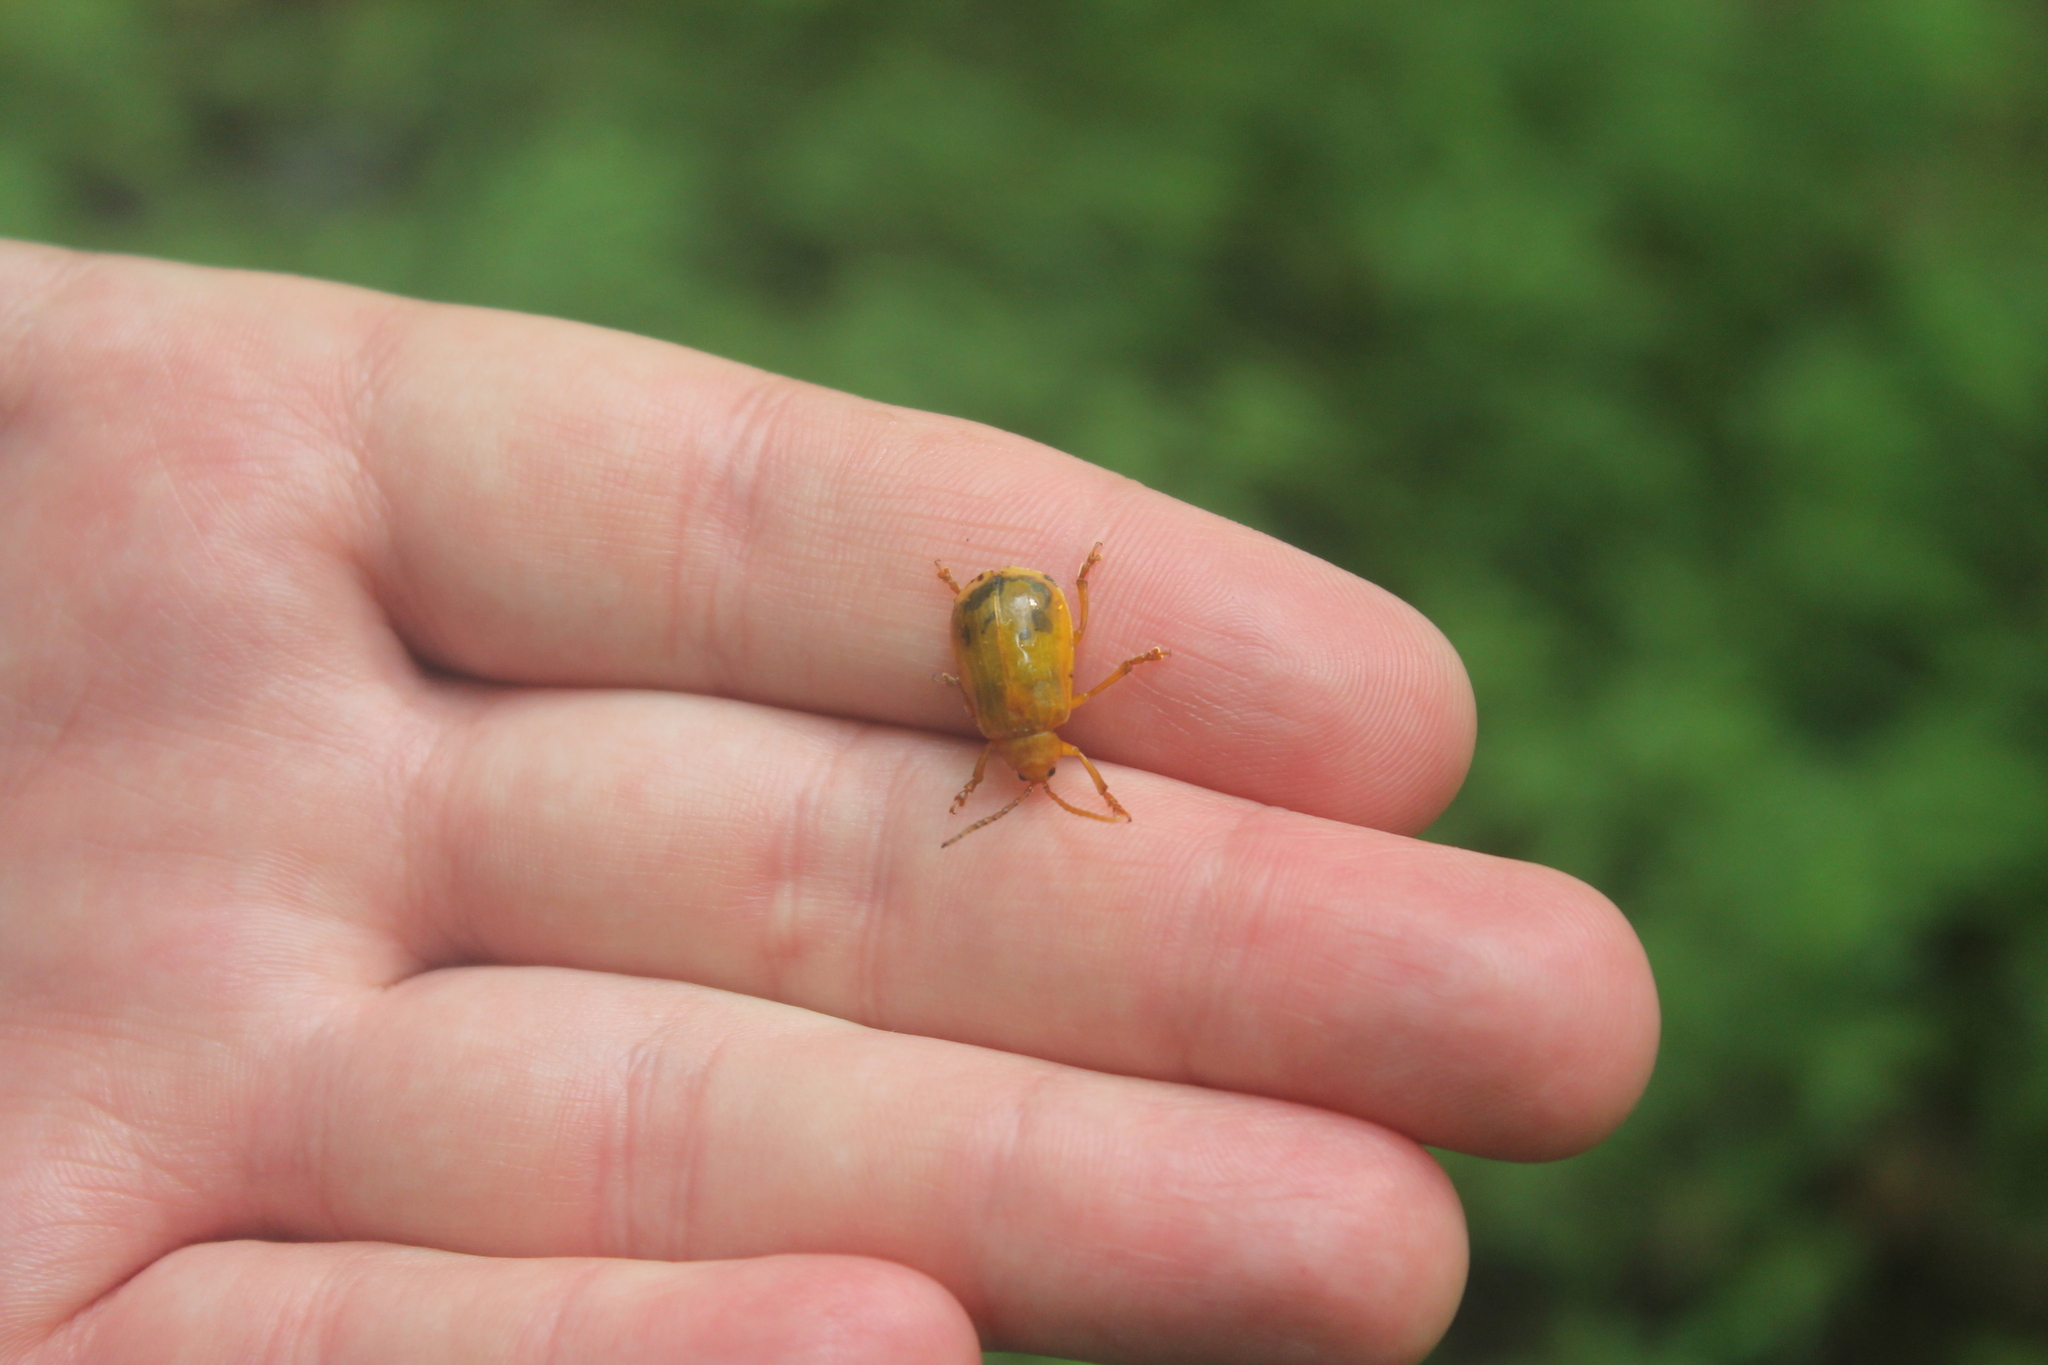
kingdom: Animalia
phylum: Arthropoda
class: Insecta
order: Coleoptera
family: Chrysomelidae
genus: Monocesta
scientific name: Monocesta coryli
